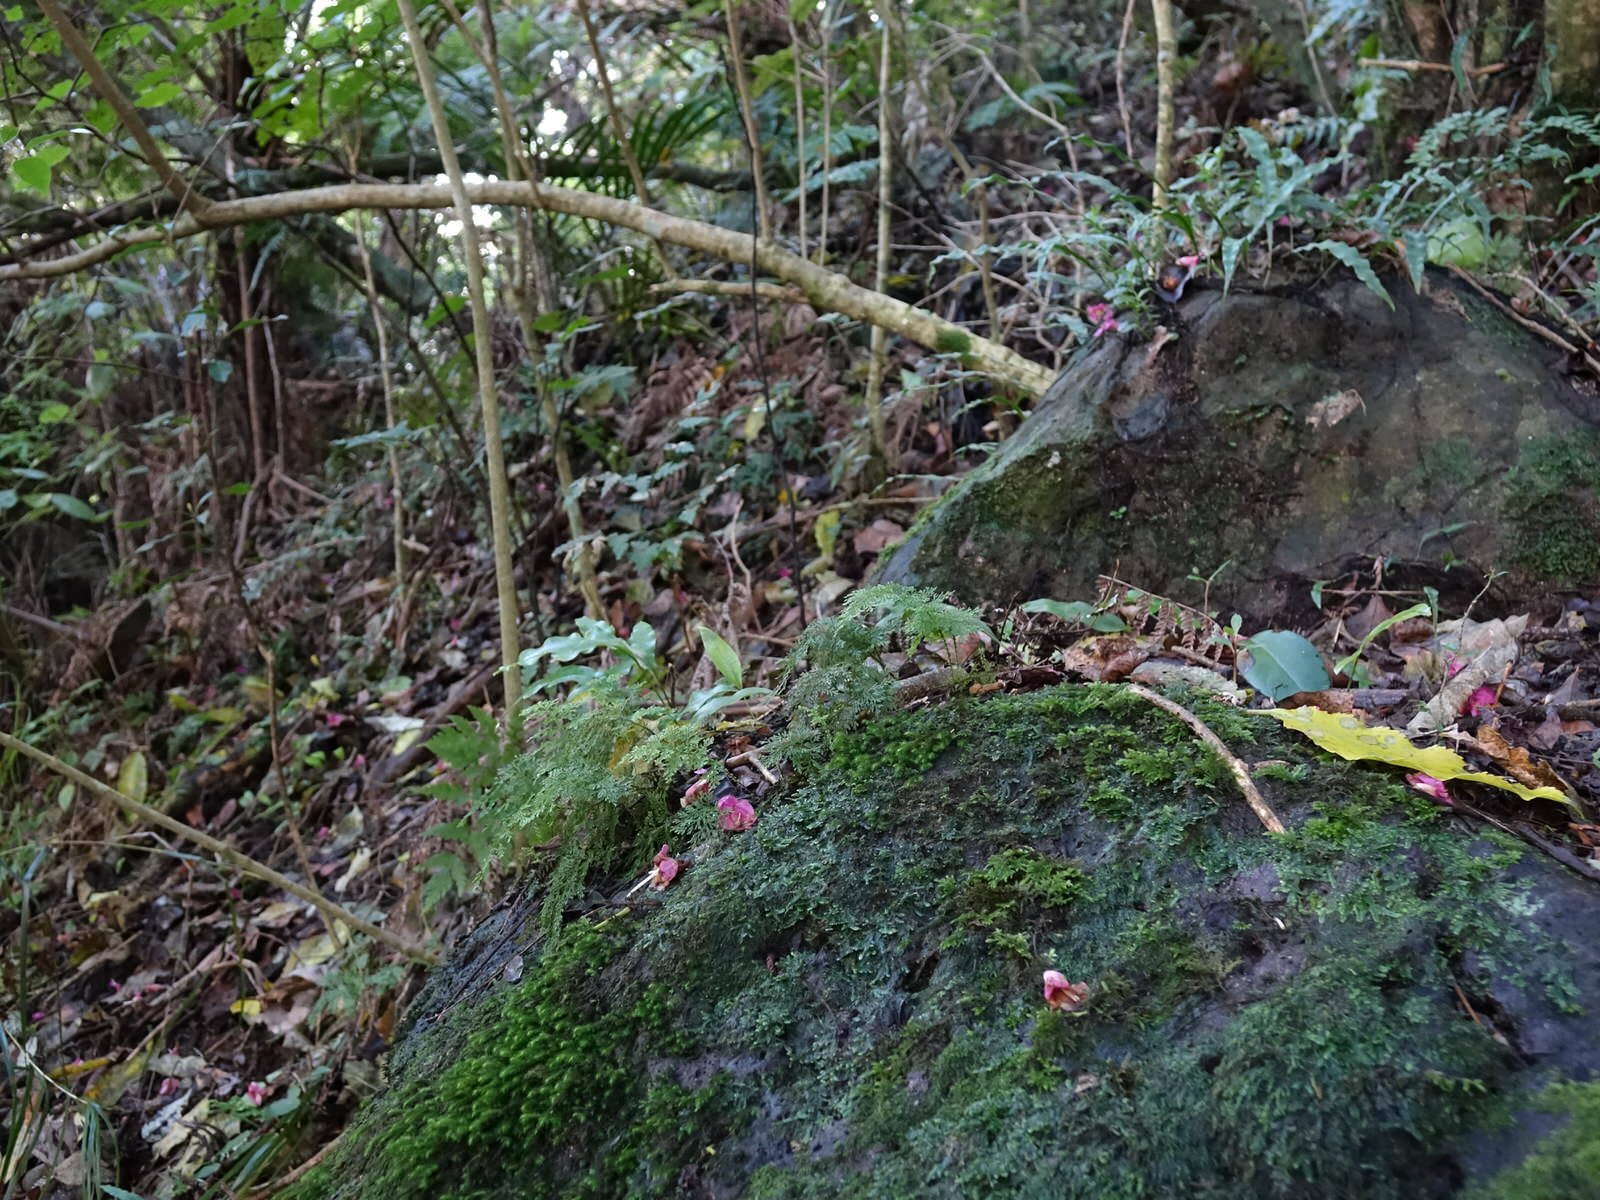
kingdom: Plantae
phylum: Tracheophyta
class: Polypodiopsida
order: Hymenophyllales
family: Hymenophyllaceae
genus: Hymenophyllum
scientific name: Hymenophyllum flexuosum
